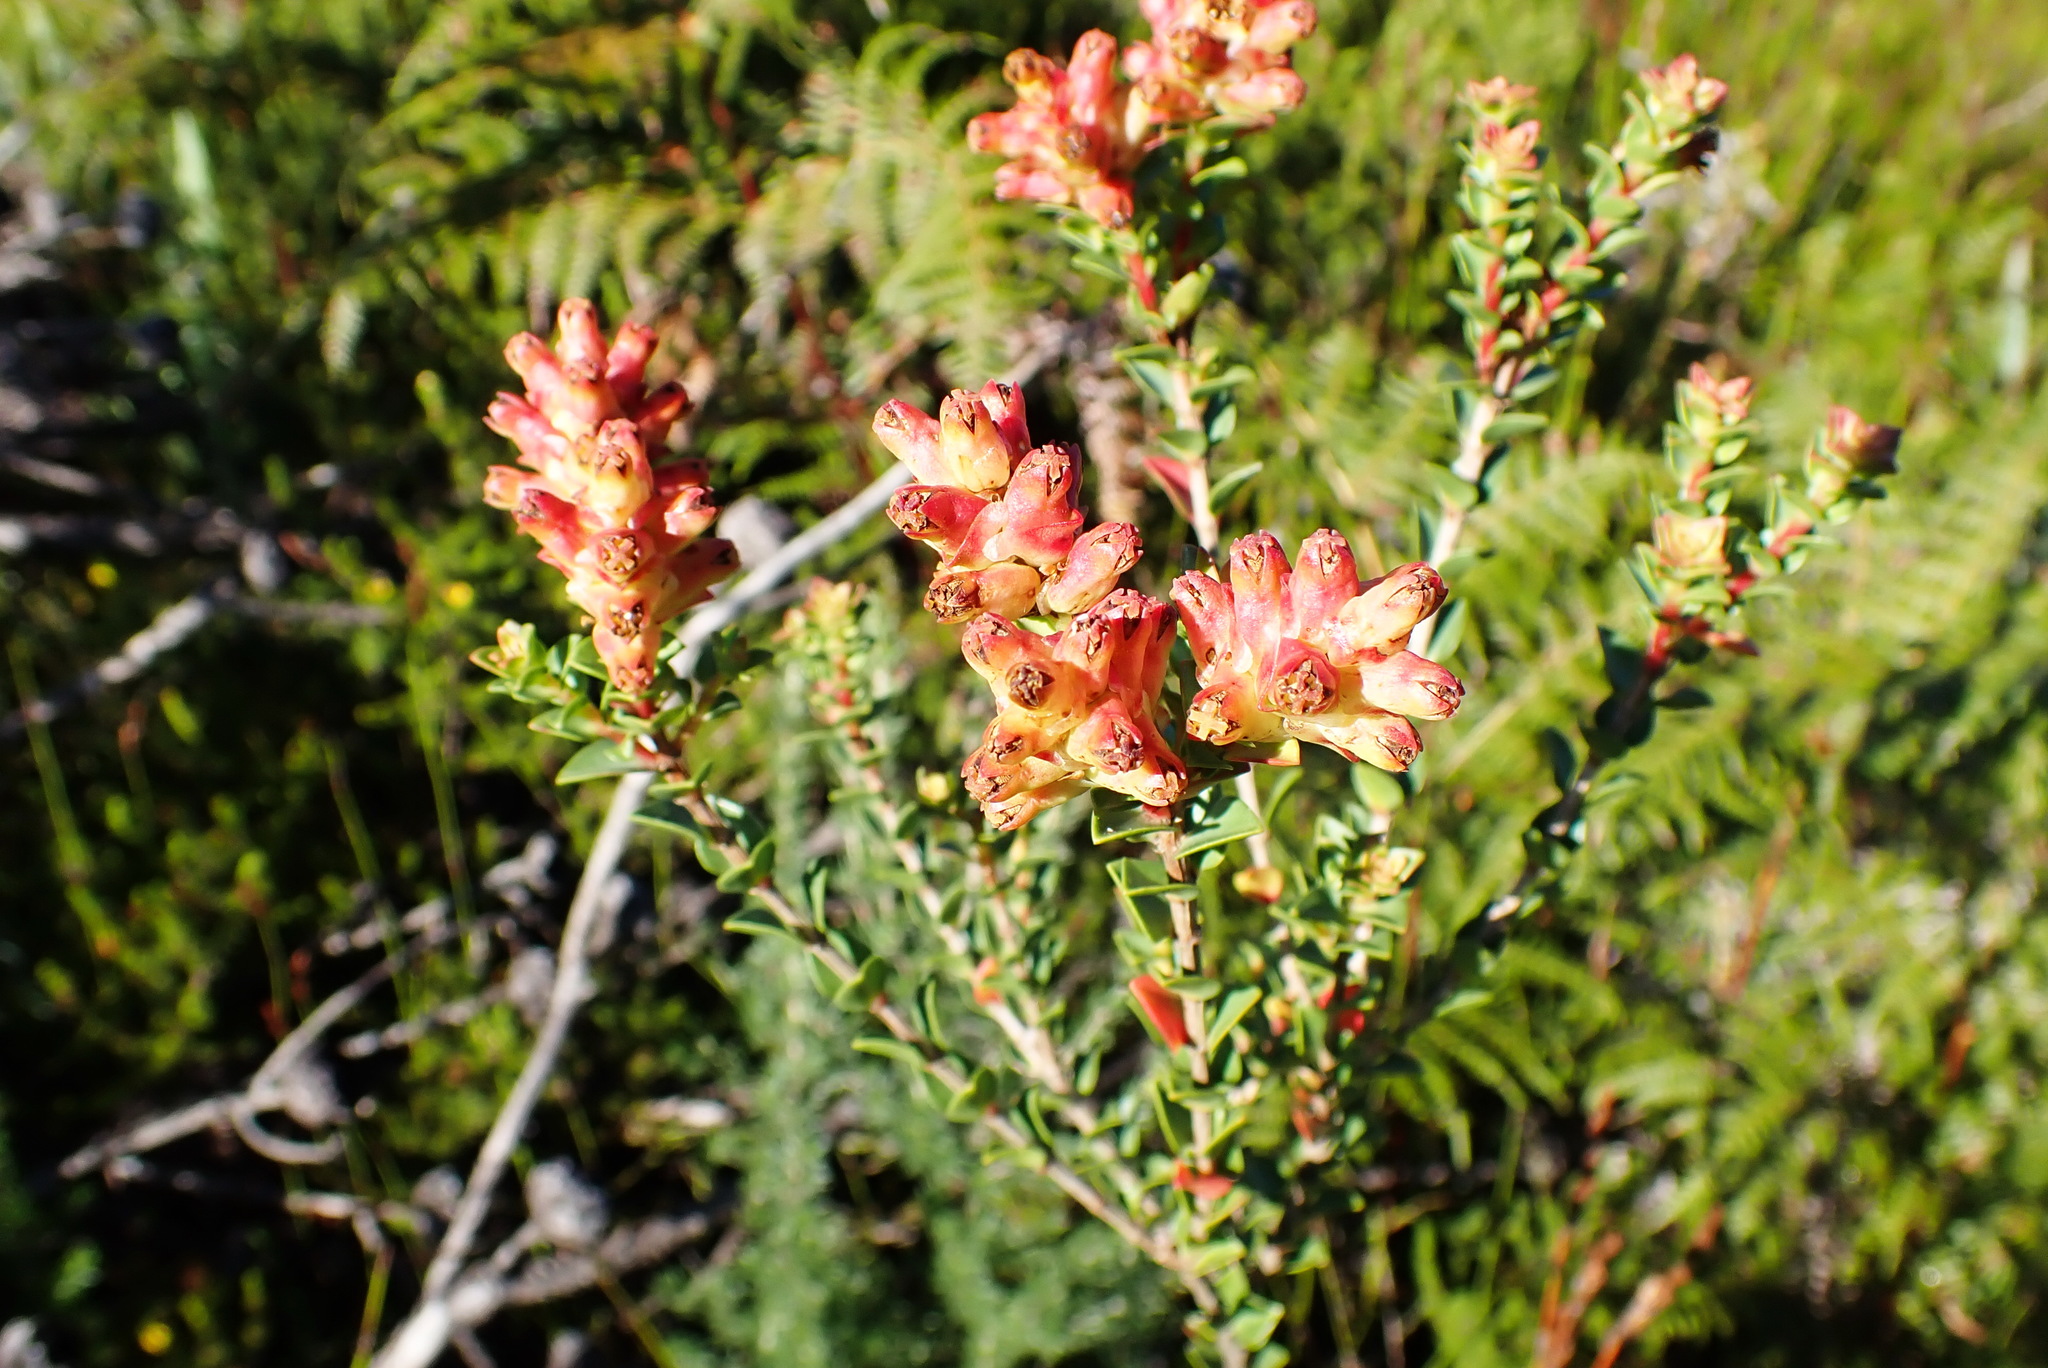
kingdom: Plantae
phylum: Tracheophyta
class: Magnoliopsida
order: Myrtales
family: Penaeaceae
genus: Penaea
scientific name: Penaea cneorum
